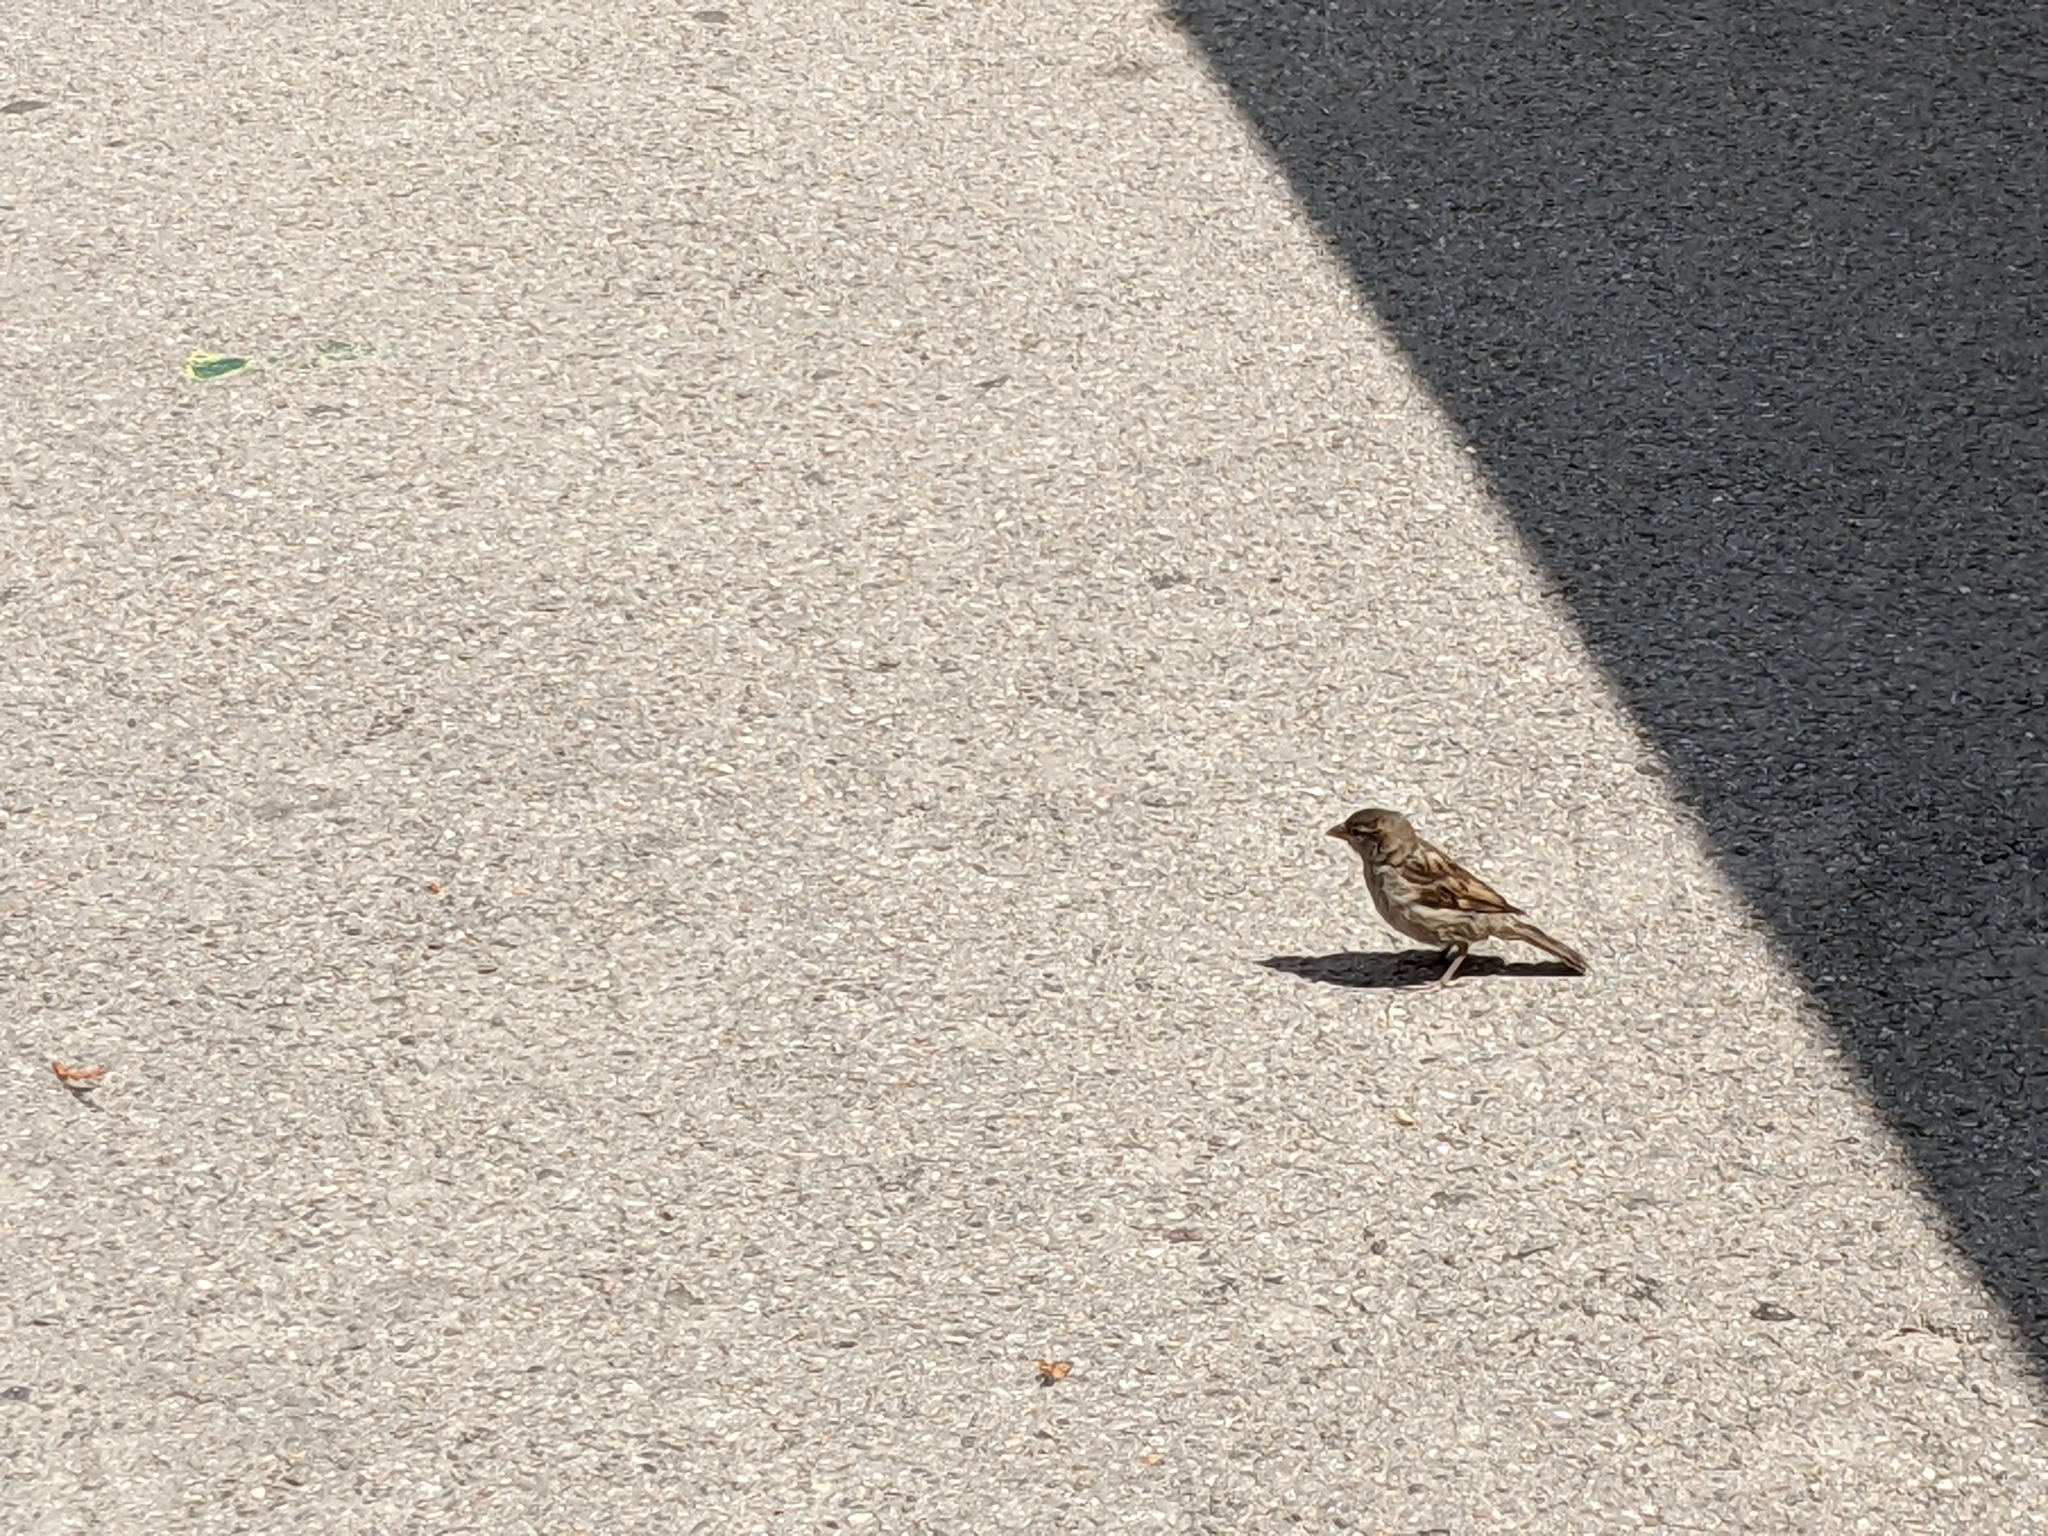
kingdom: Animalia
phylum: Chordata
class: Aves
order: Passeriformes
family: Passeridae
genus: Passer
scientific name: Passer domesticus
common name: House sparrow
